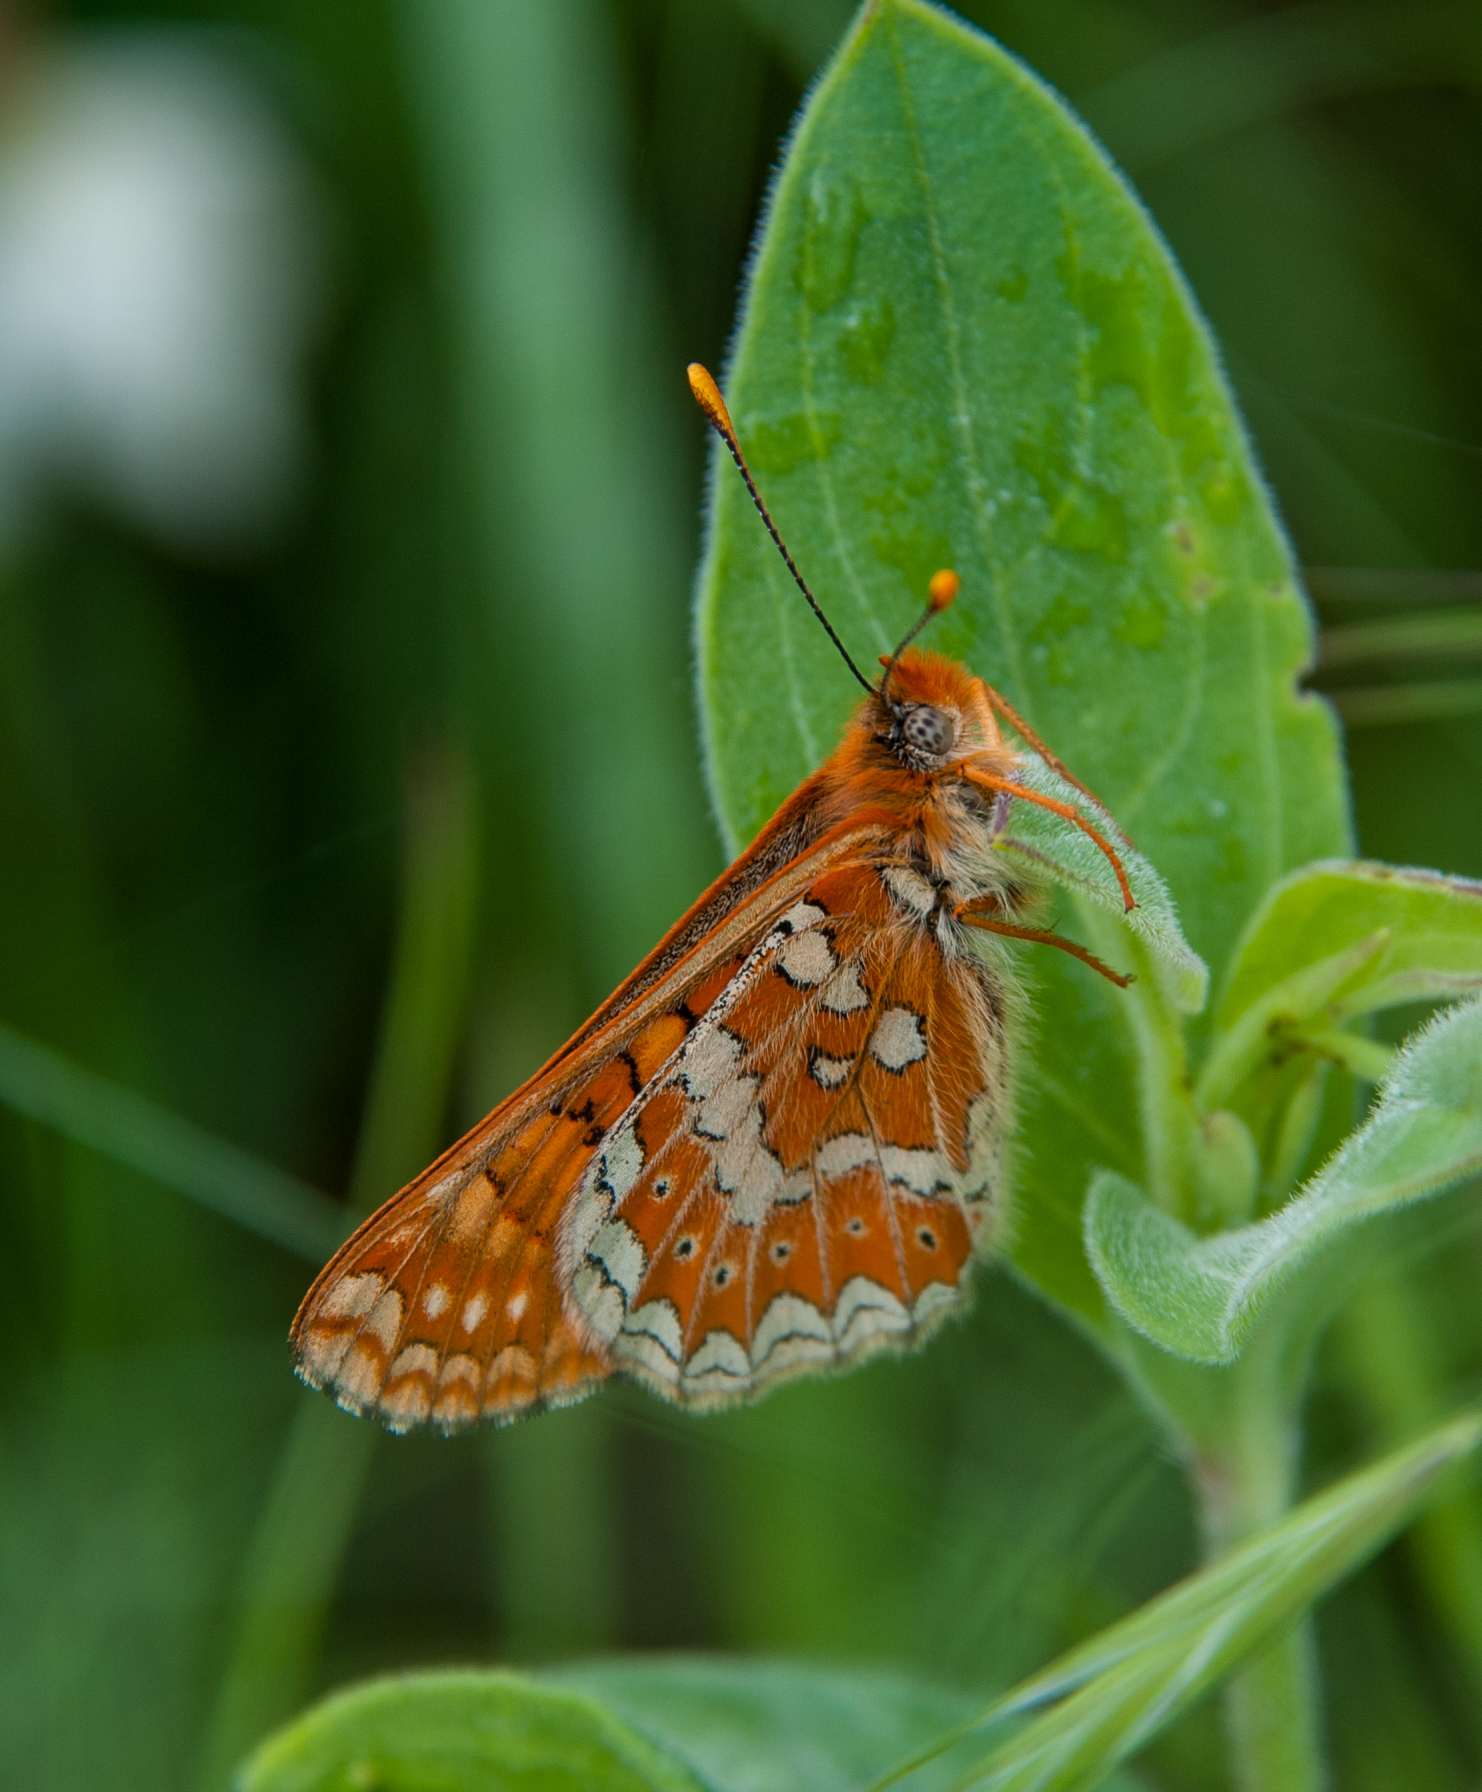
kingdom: Animalia
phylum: Arthropoda
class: Insecta
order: Lepidoptera
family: Nymphalidae
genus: Euphydryas
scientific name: Euphydryas aurinia
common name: Marsh fritillary
